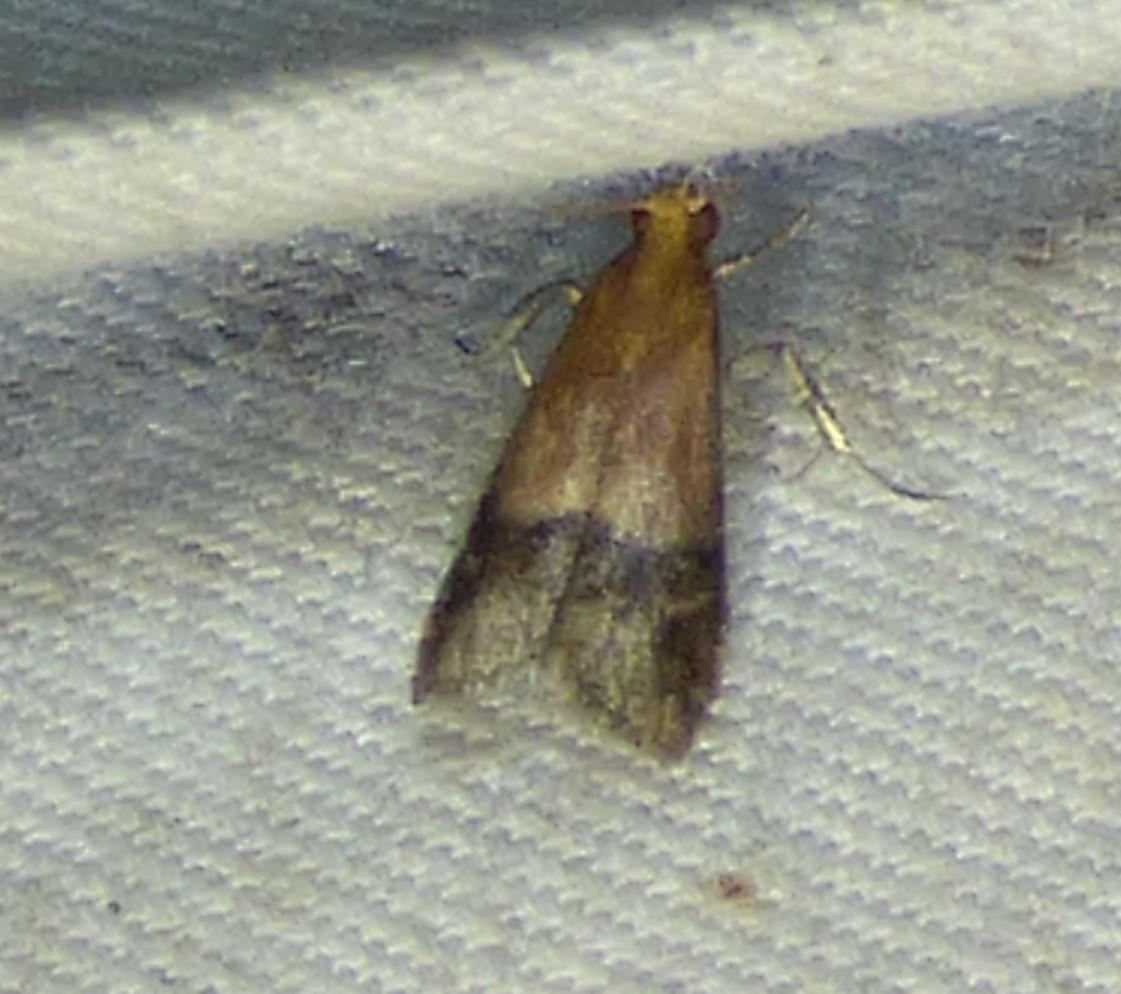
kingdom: Animalia
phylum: Arthropoda
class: Insecta
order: Lepidoptera
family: Pyralidae
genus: Eulogia
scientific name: Eulogia ochrifrontella
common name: Broad-banded eulogia moth
